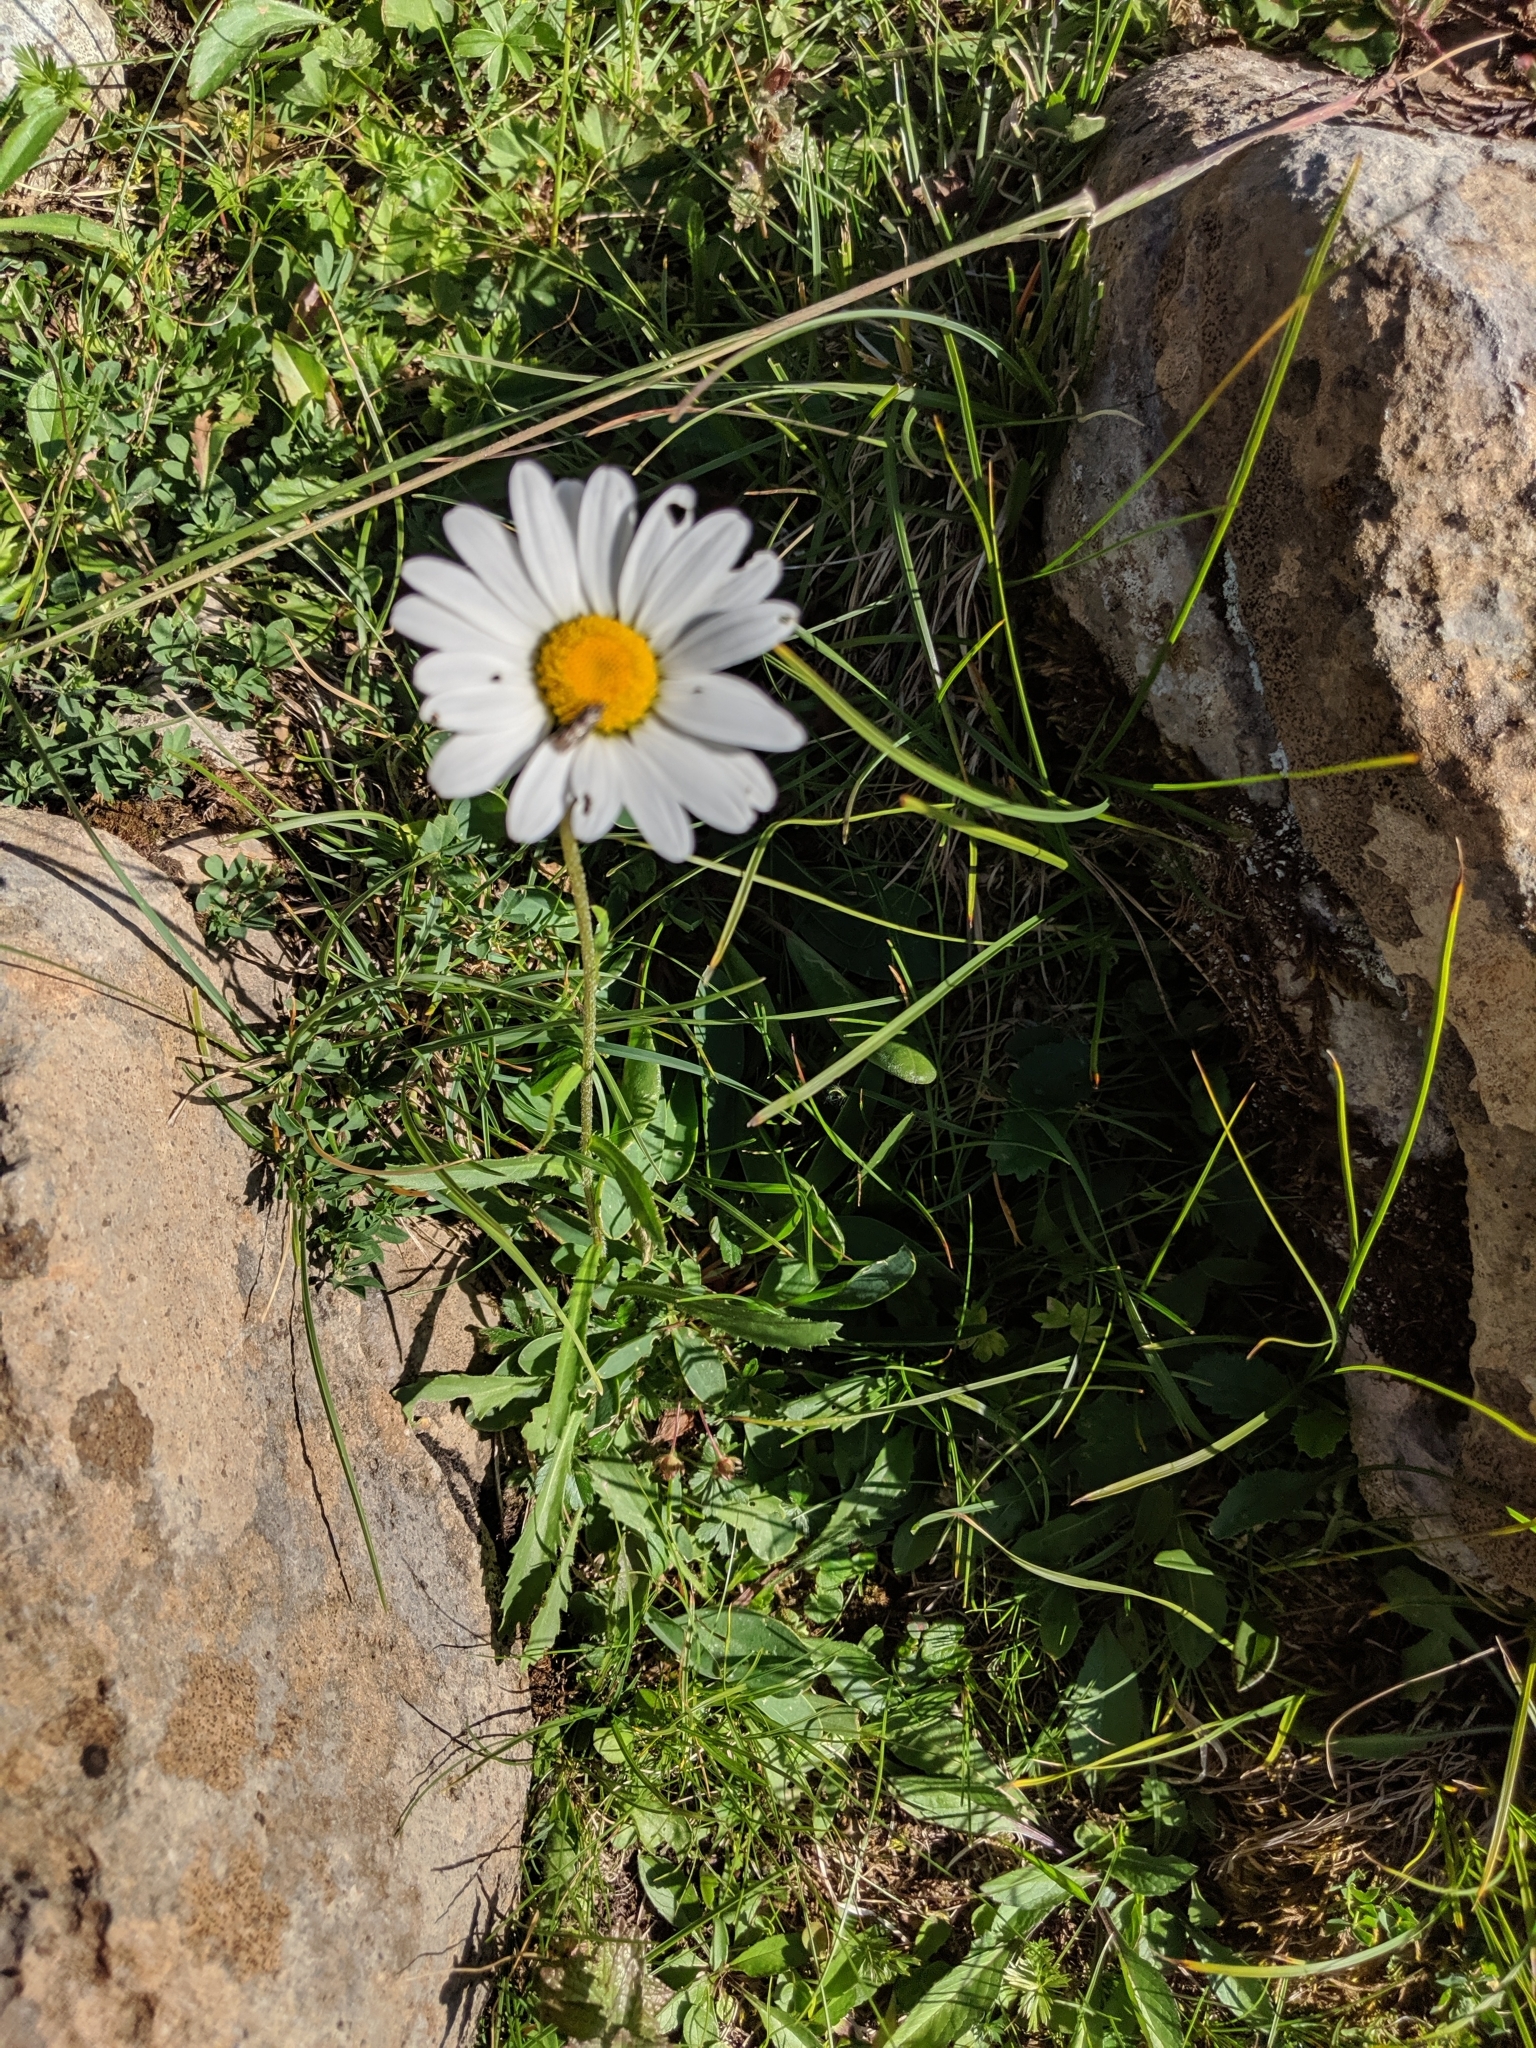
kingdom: Plantae
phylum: Tracheophyta
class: Magnoliopsida
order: Asterales
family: Asteraceae
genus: Leucanthemum
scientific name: Leucanthemum vulgare
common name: Oxeye daisy
